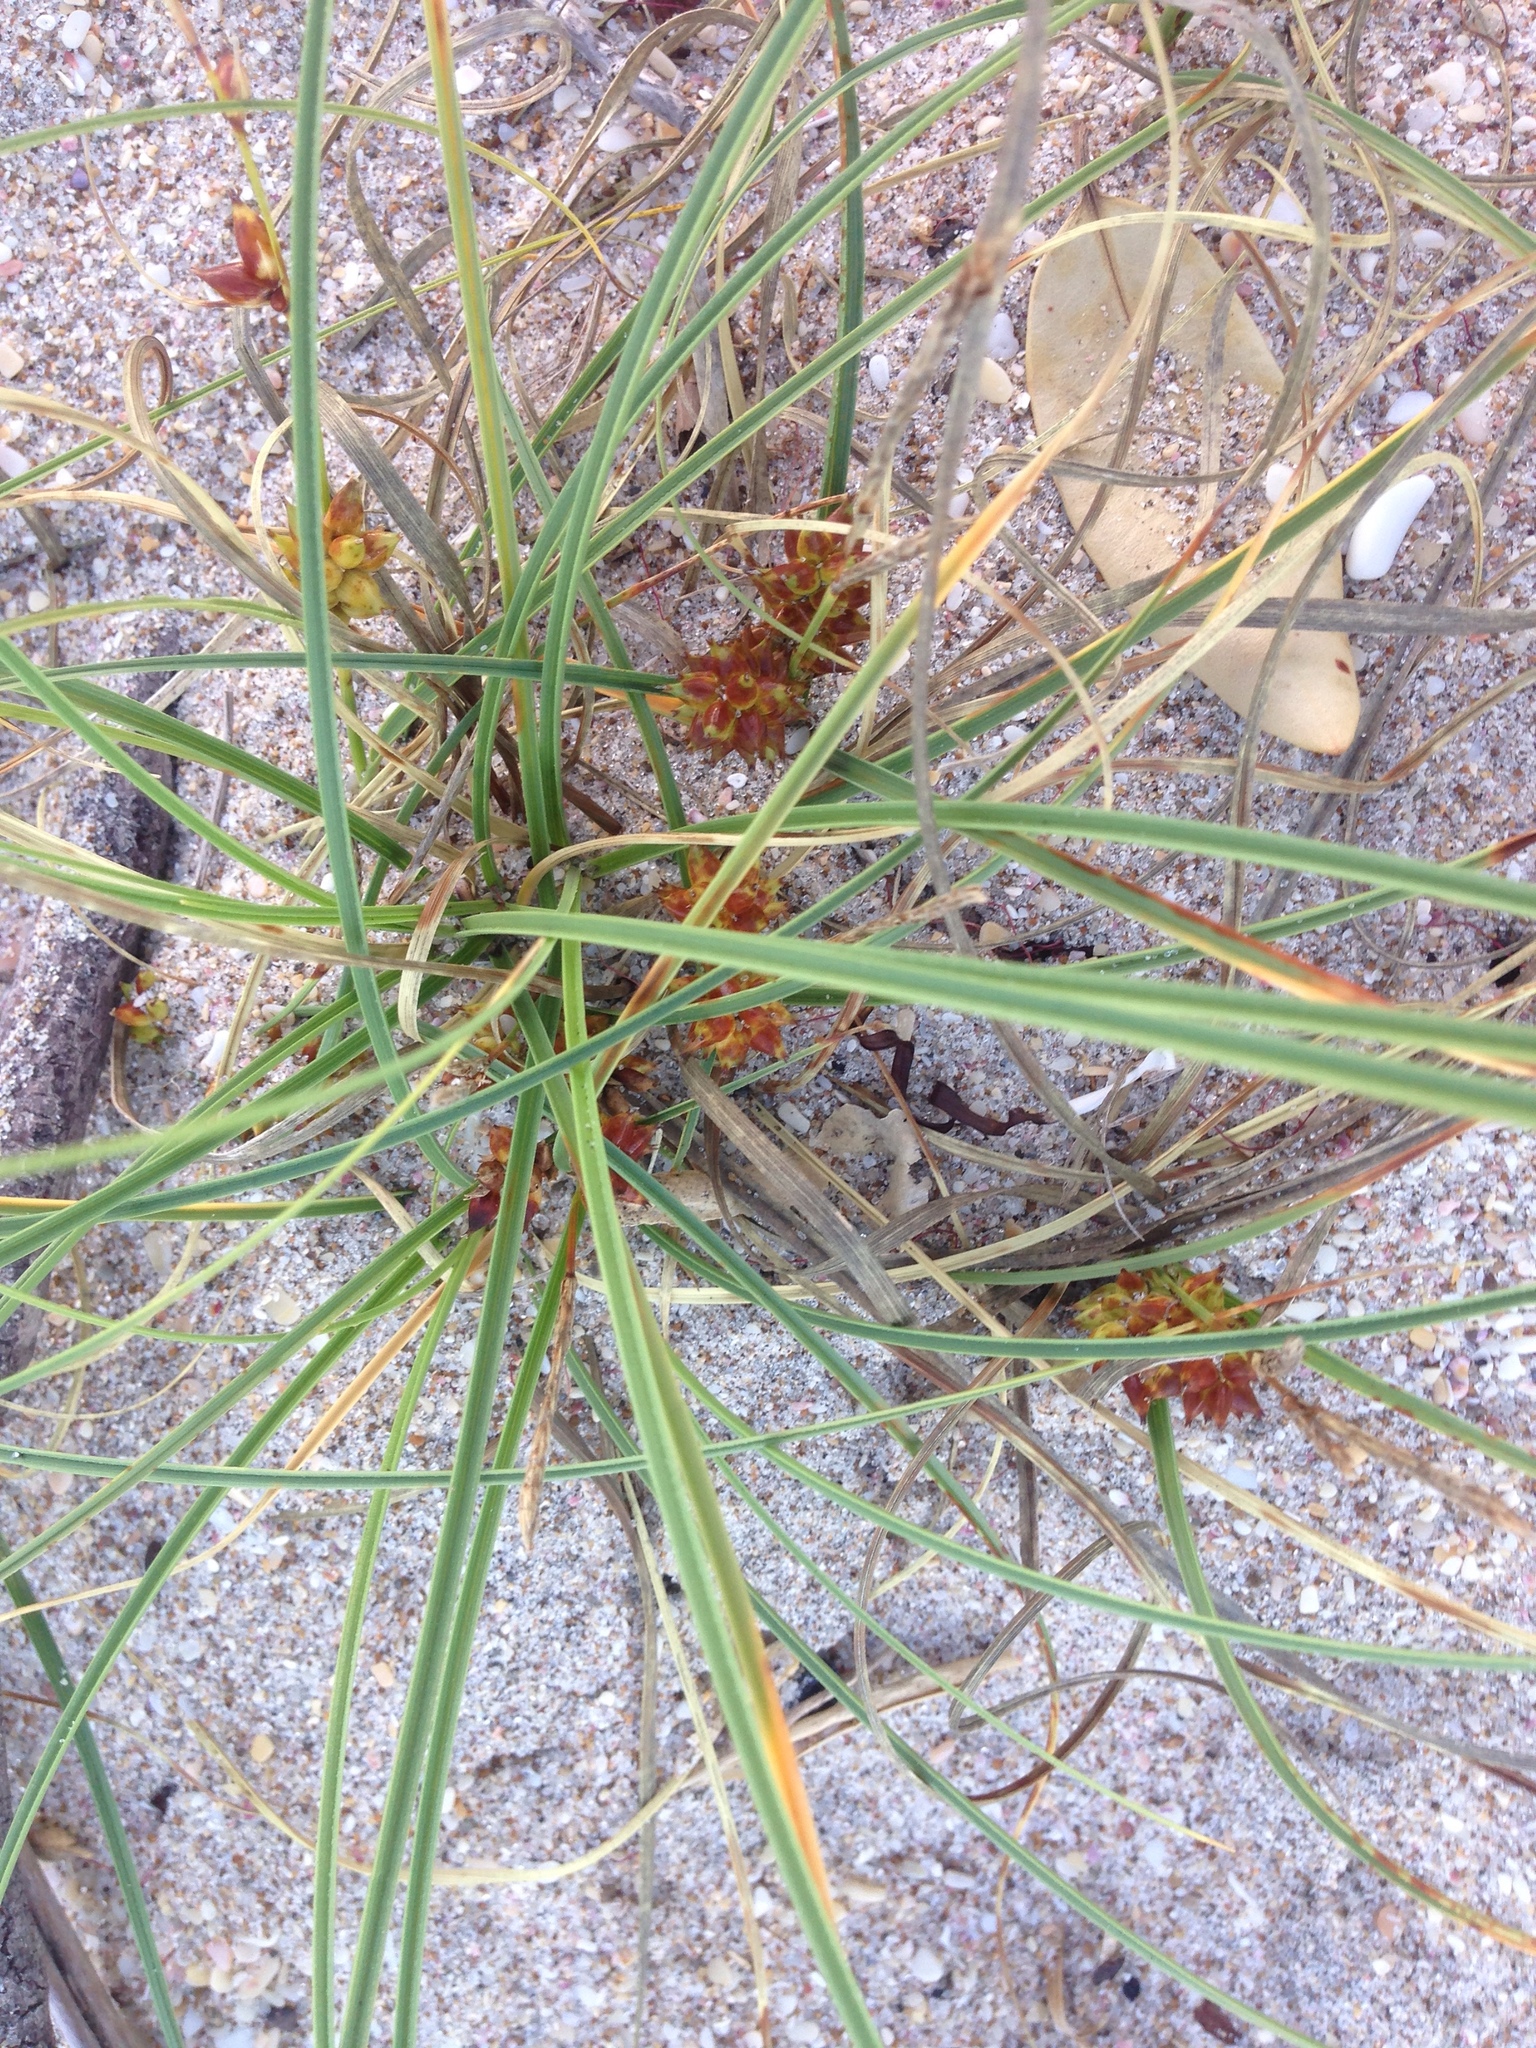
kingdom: Plantae
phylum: Tracheophyta
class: Liliopsida
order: Poales
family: Cyperaceae
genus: Carex
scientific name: Carex pumila
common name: Dwarf sedge
